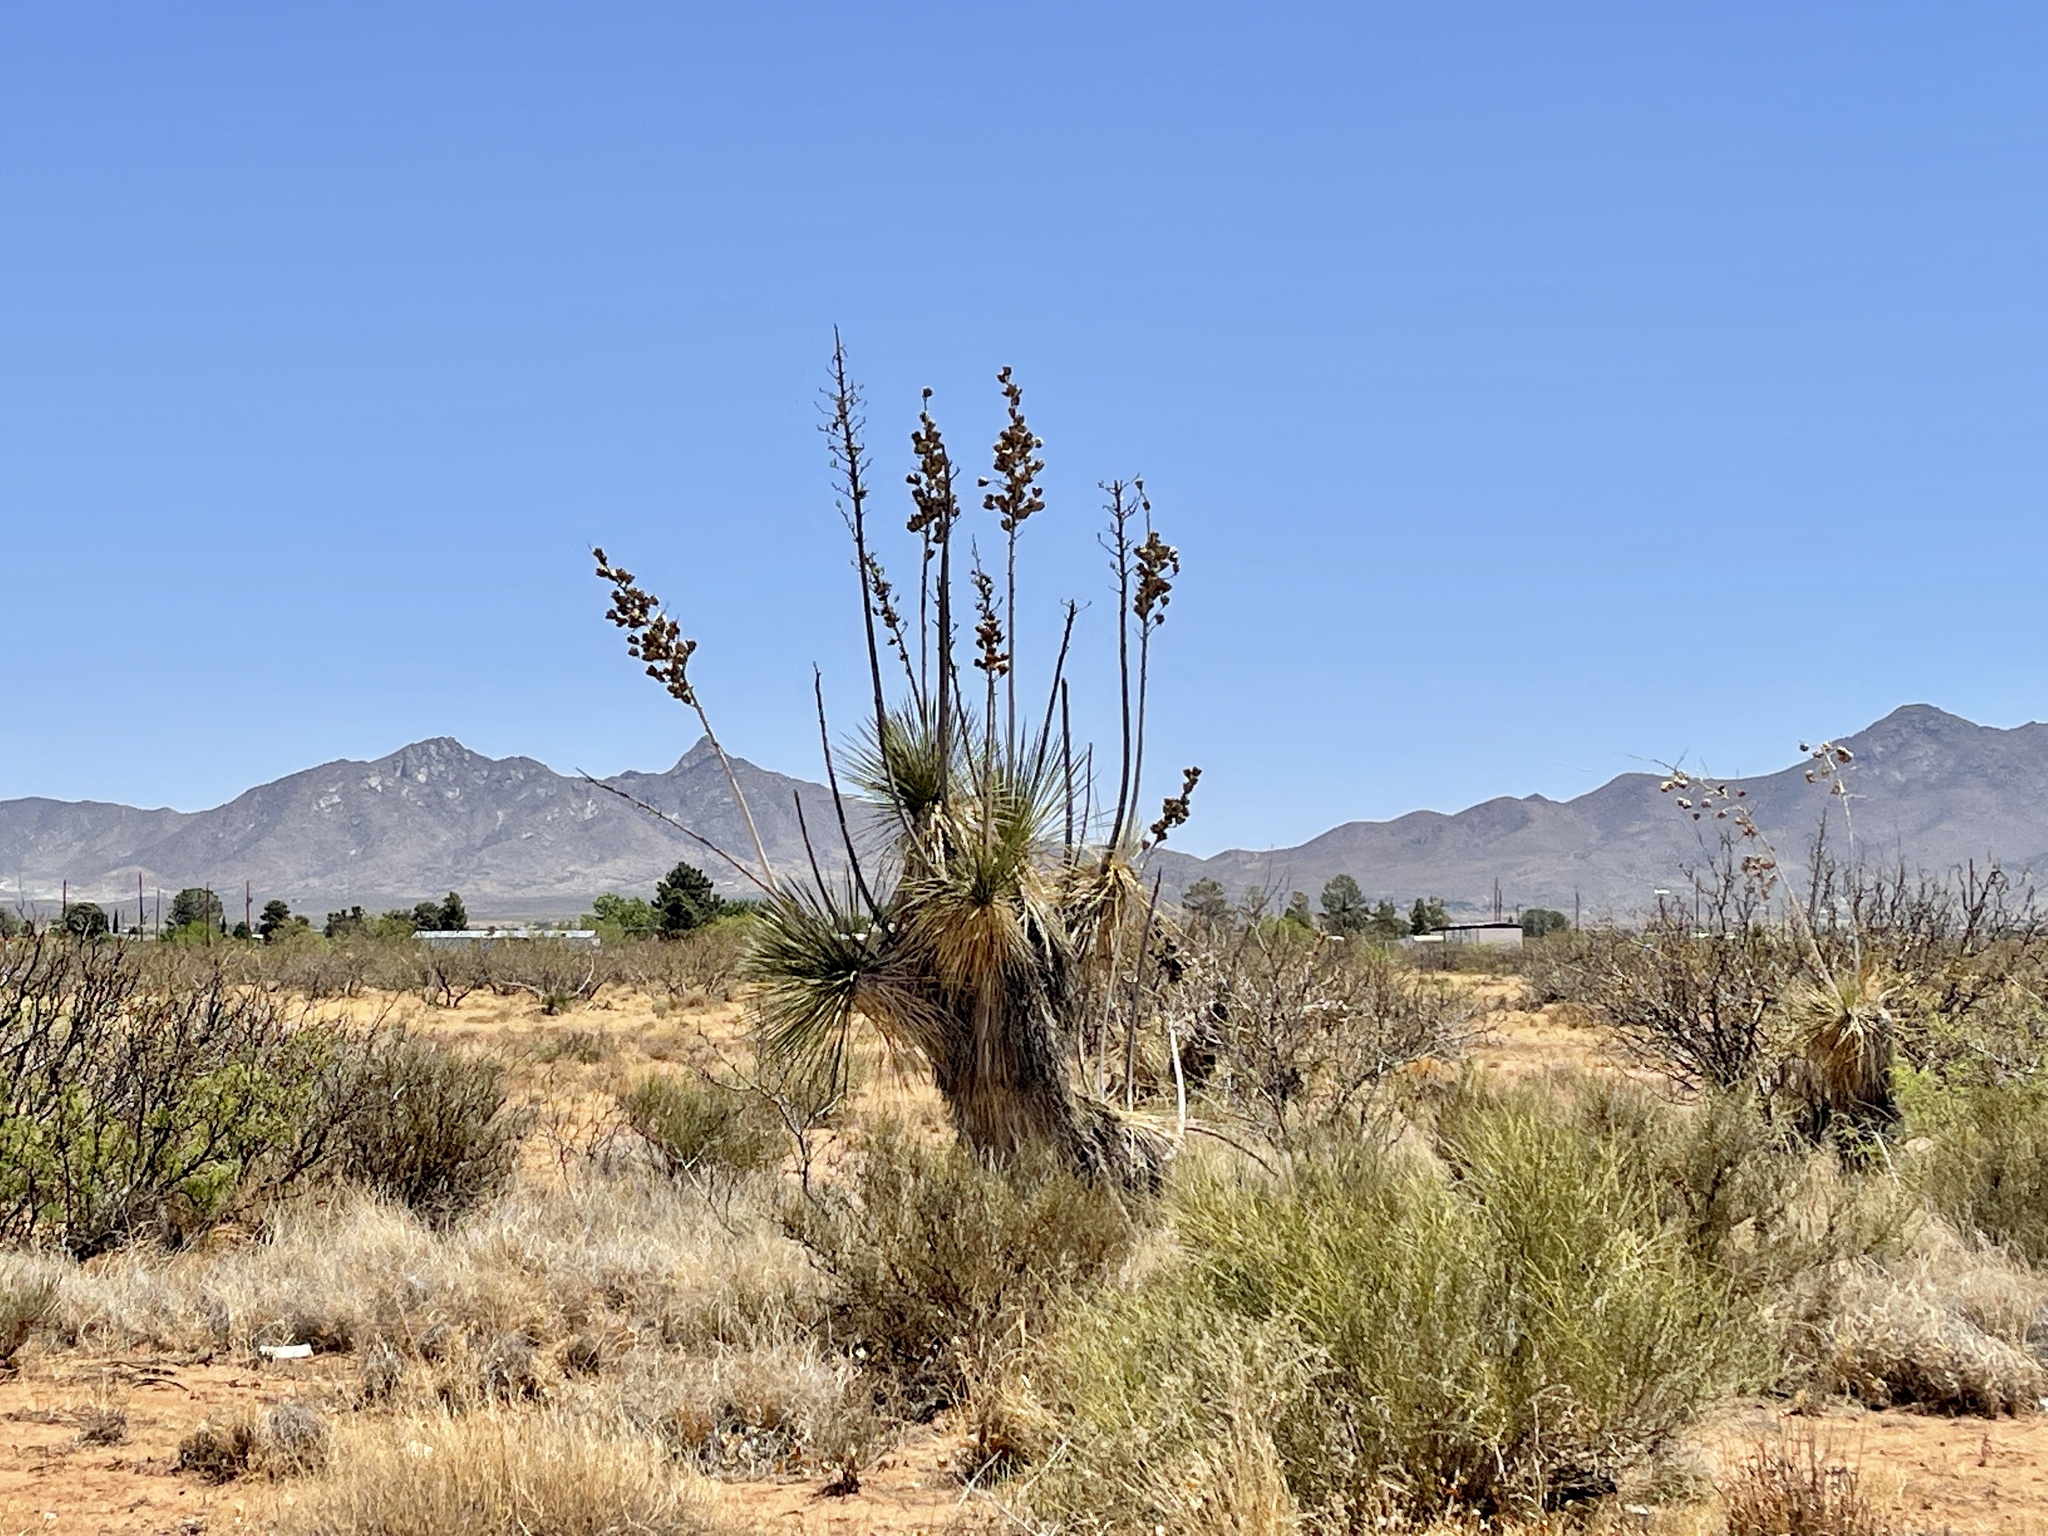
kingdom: Plantae
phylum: Tracheophyta
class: Liliopsida
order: Asparagales
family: Asparagaceae
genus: Yucca
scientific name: Yucca elata
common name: Palmella
